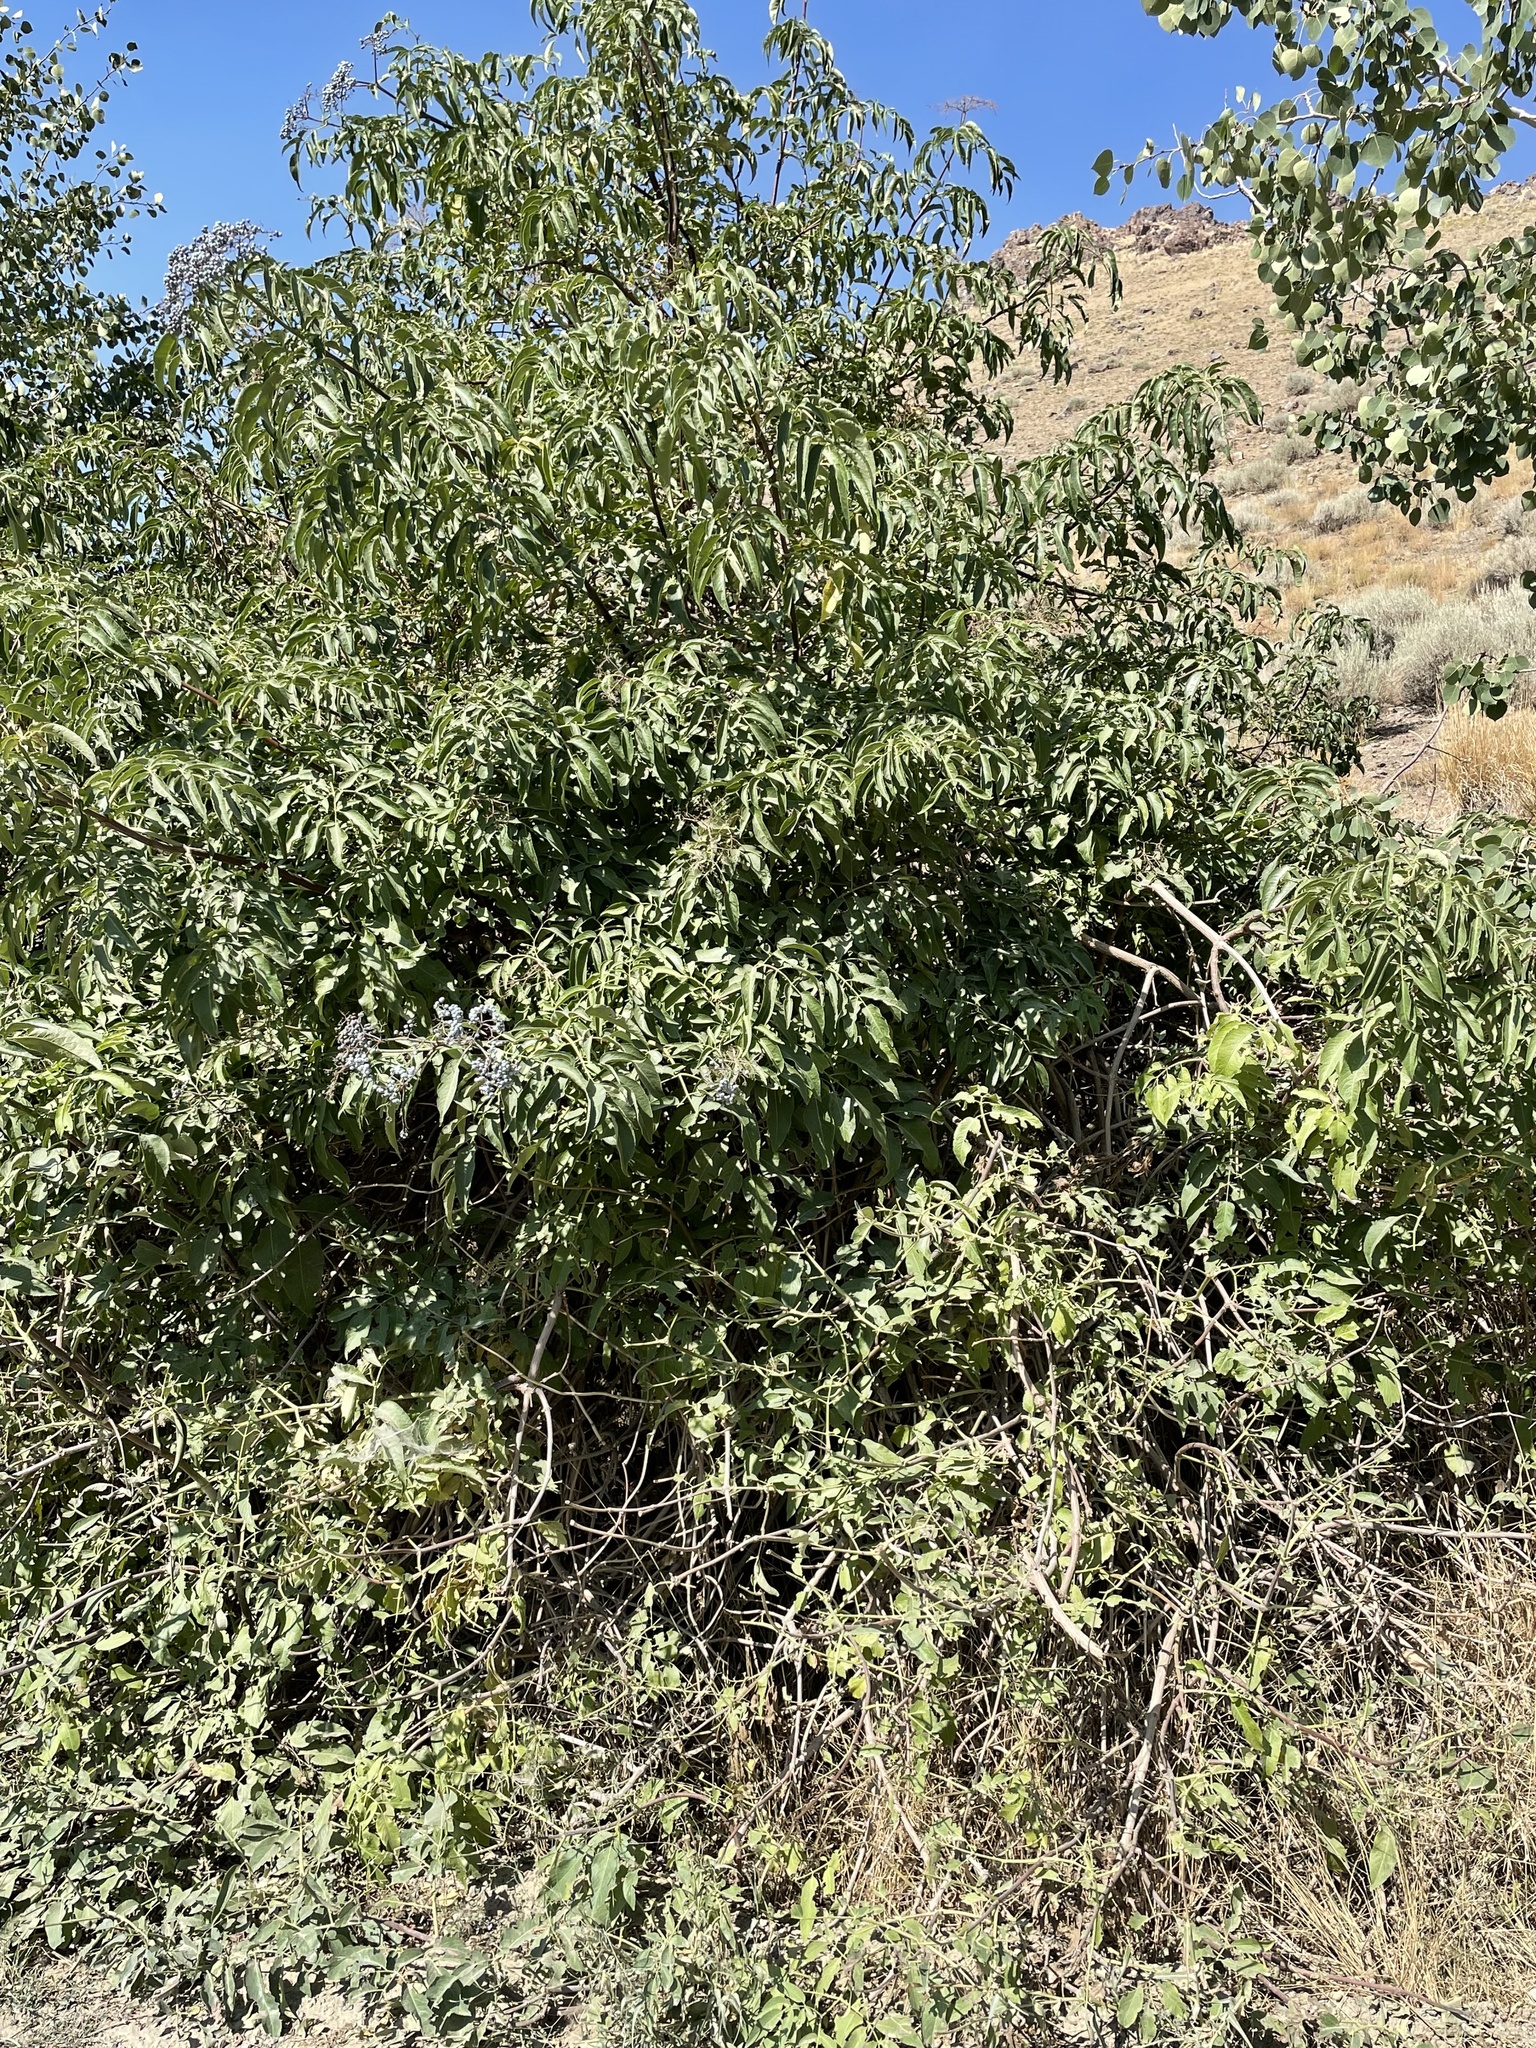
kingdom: Plantae
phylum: Tracheophyta
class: Magnoliopsida
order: Dipsacales
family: Viburnaceae
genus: Sambucus
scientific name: Sambucus cerulea
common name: Blue elder
